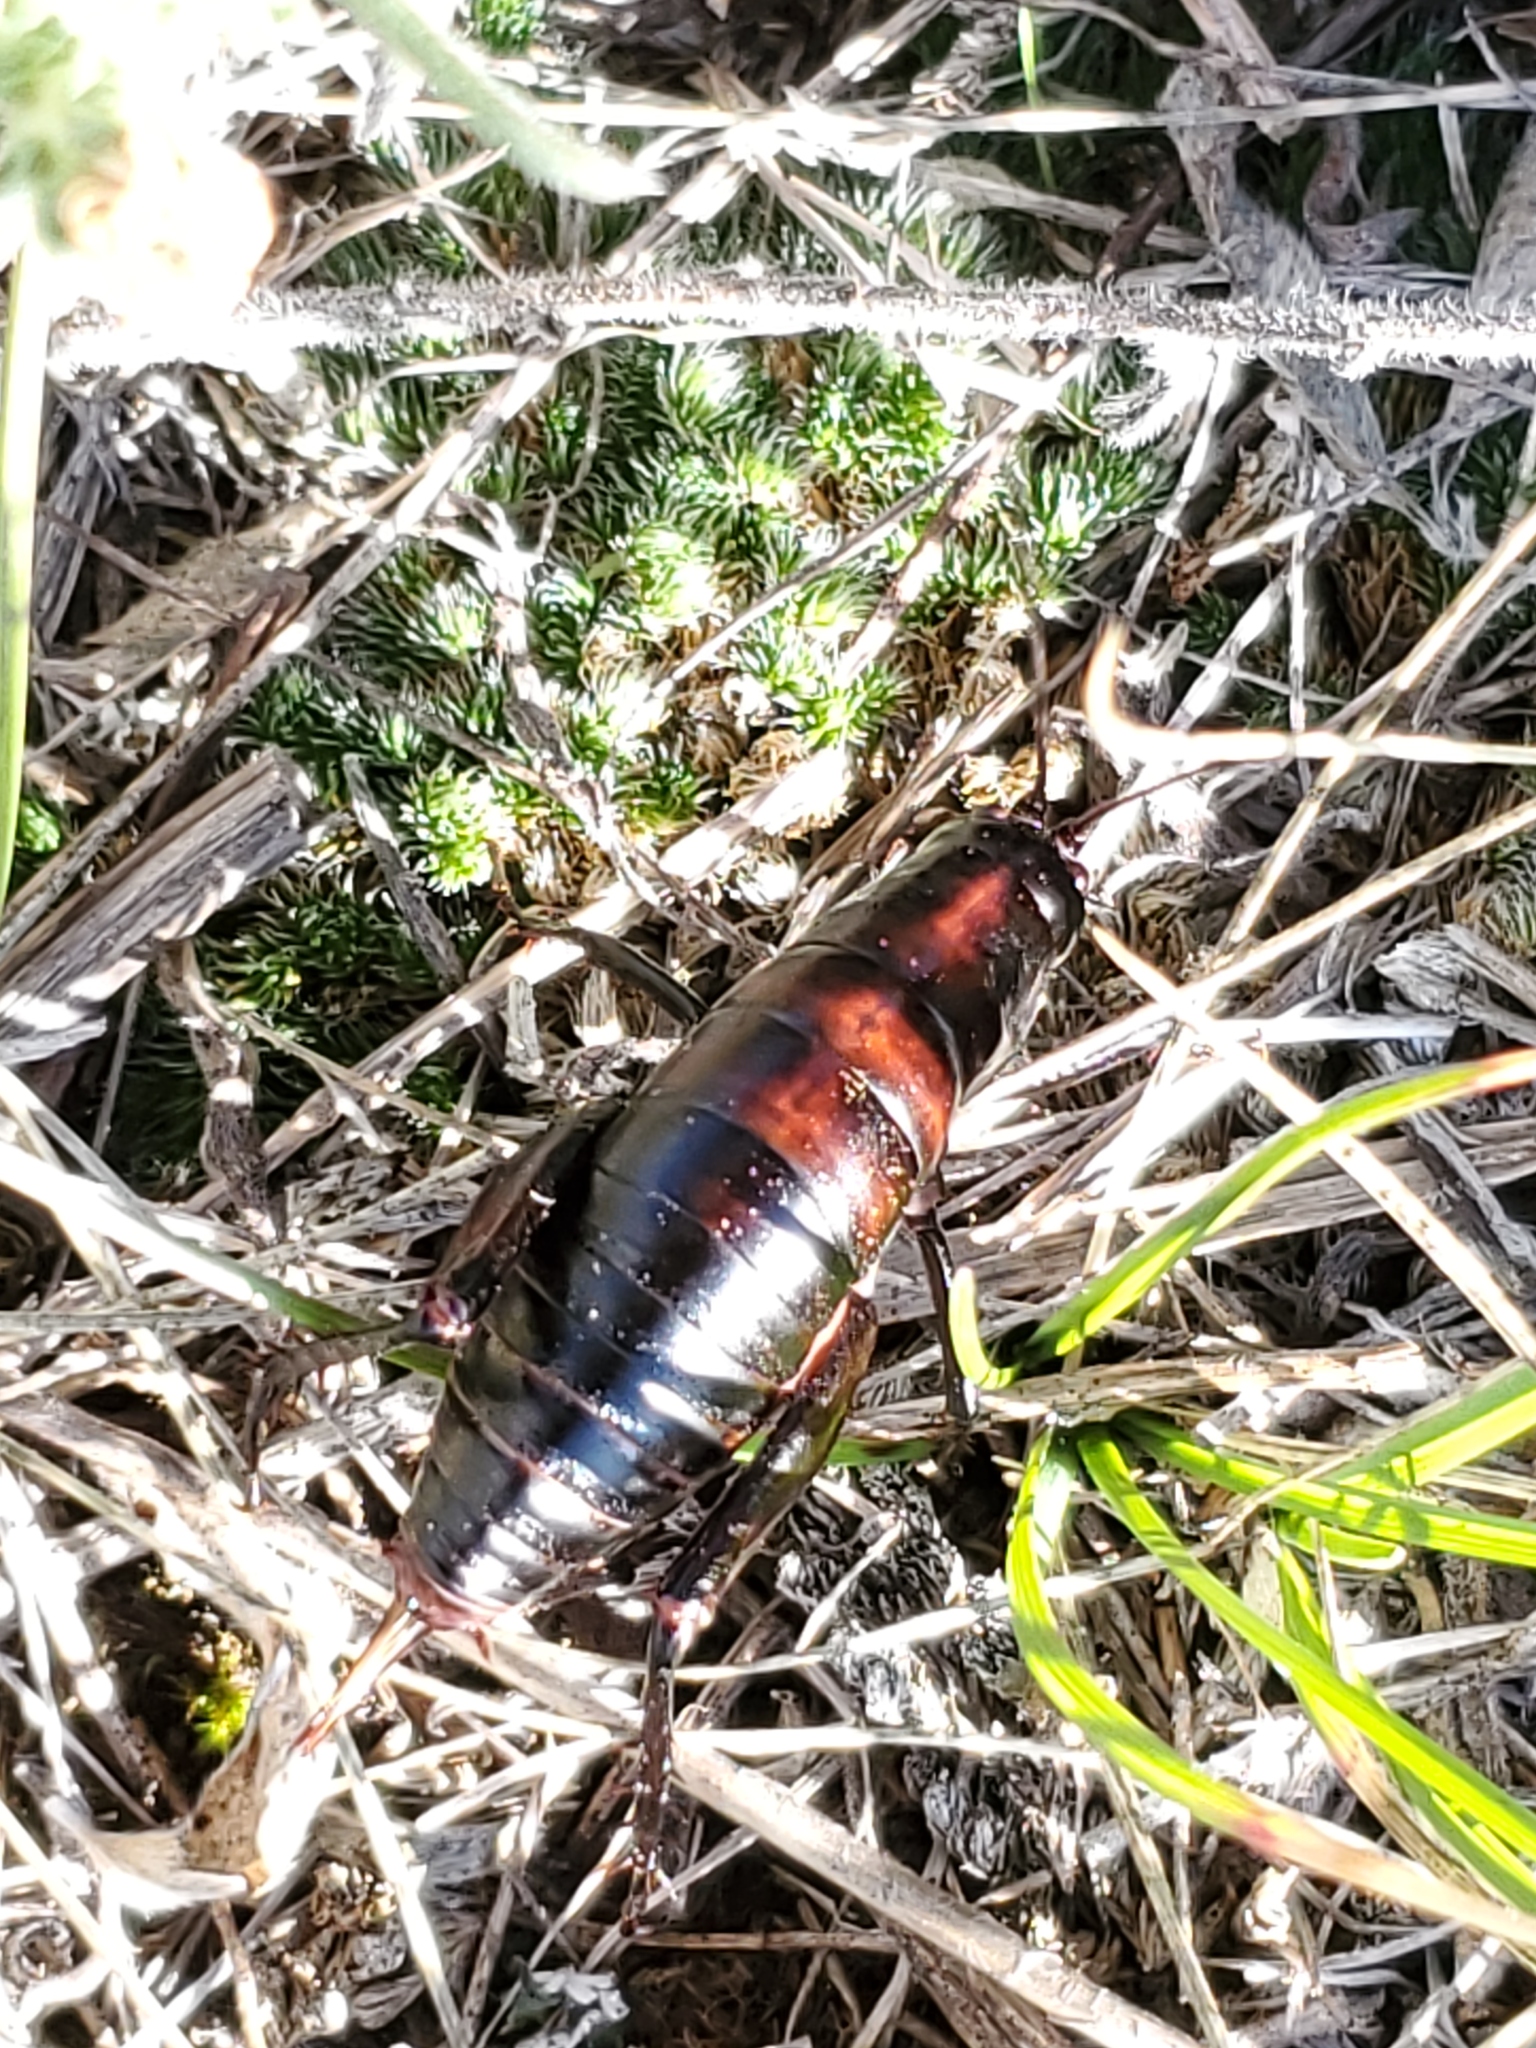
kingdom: Animalia
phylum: Arthropoda
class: Insecta
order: Orthoptera
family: Rhaphidophoridae
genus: Udeopsylla
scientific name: Udeopsylla robusta
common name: Robust camel cricket
